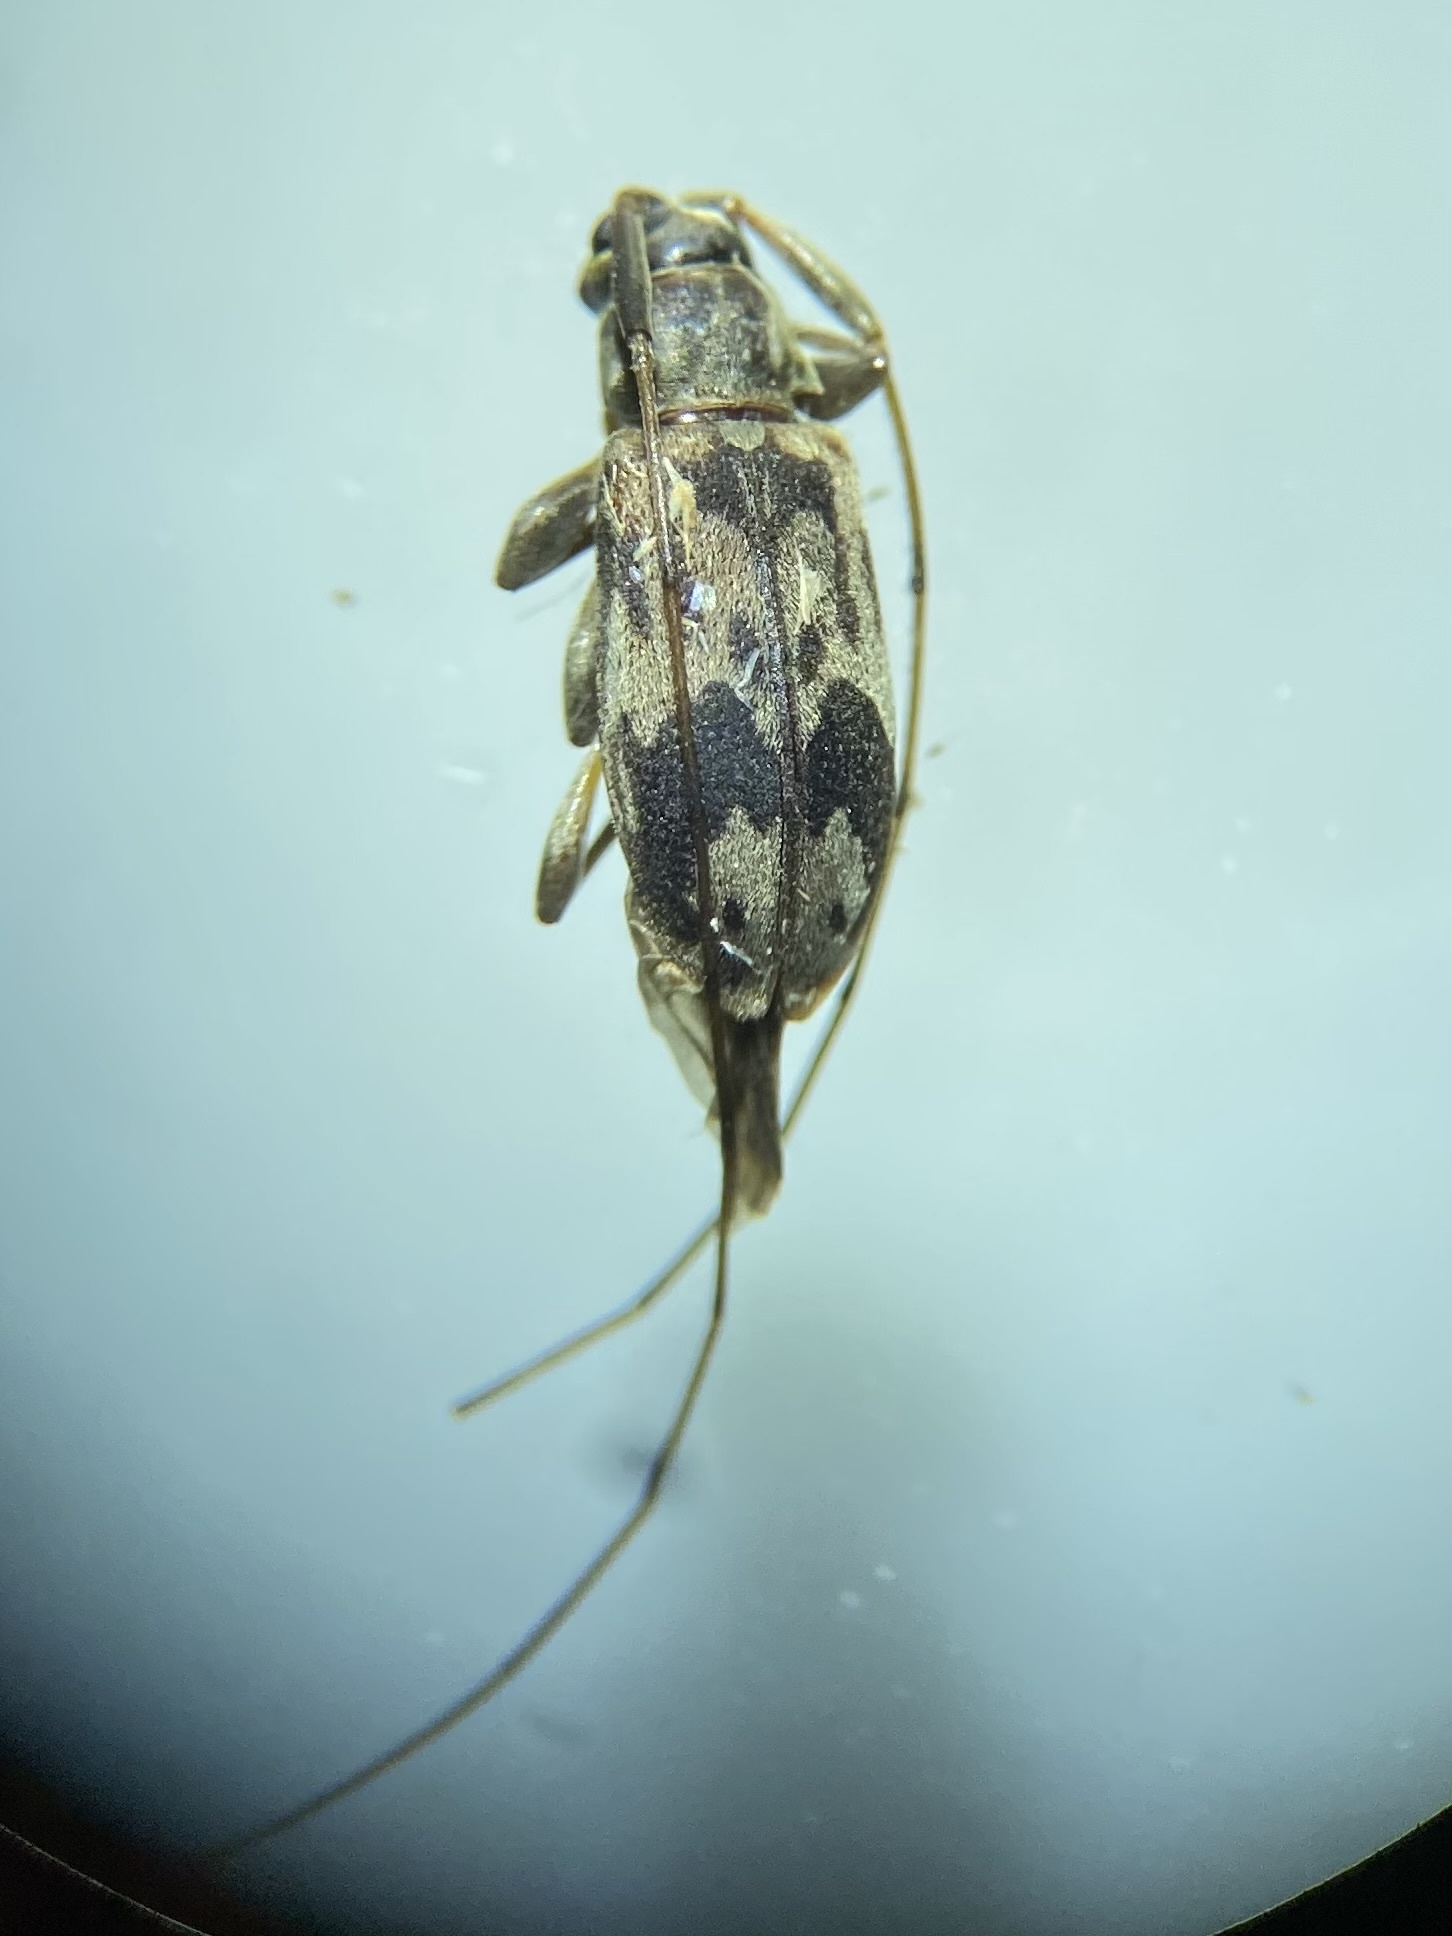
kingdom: Animalia
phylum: Arthropoda
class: Insecta
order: Coleoptera
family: Cerambycidae
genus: Urgleptes
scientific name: Urgleptes querci
